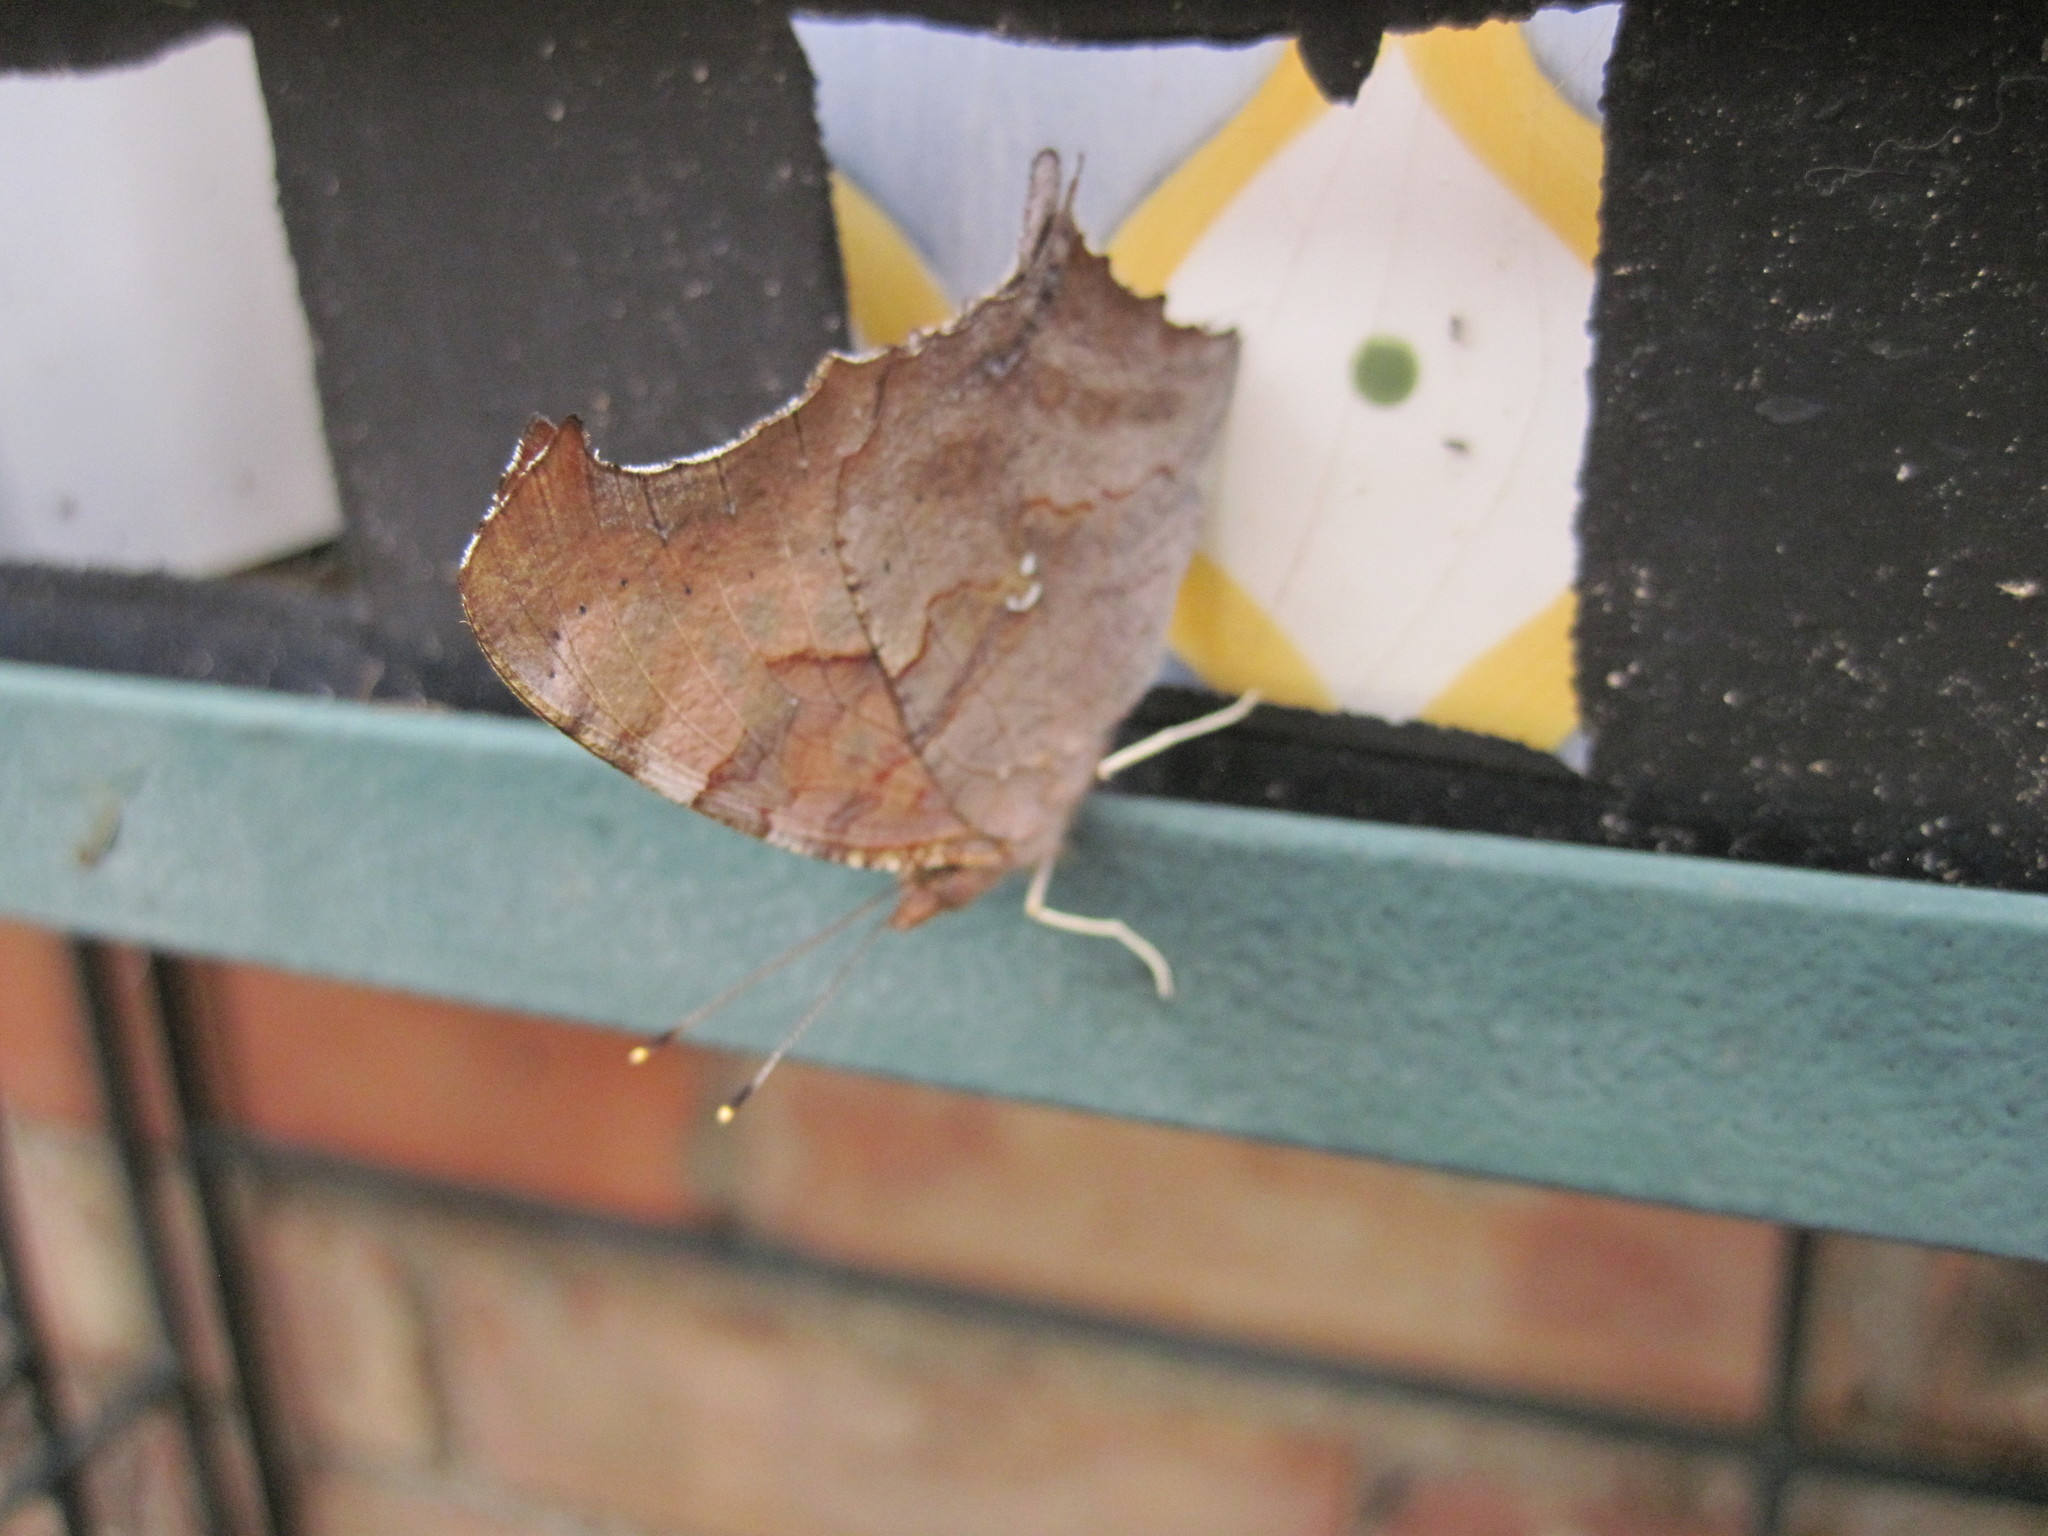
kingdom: Animalia
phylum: Arthropoda
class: Insecta
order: Lepidoptera
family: Nymphalidae
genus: Polygonia
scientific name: Polygonia interrogationis
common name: Question mark
